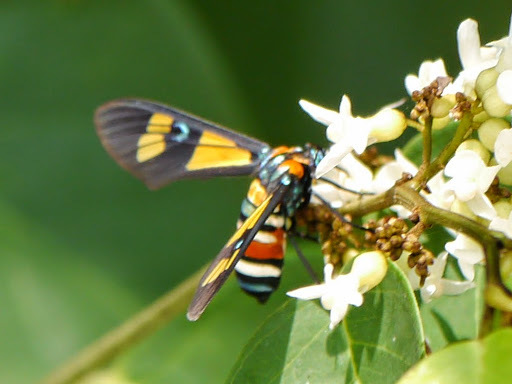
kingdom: Animalia
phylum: Arthropoda
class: Insecta
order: Lepidoptera
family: Erebidae
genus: Euchromia
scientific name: Euchromia lethe
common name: Basker
